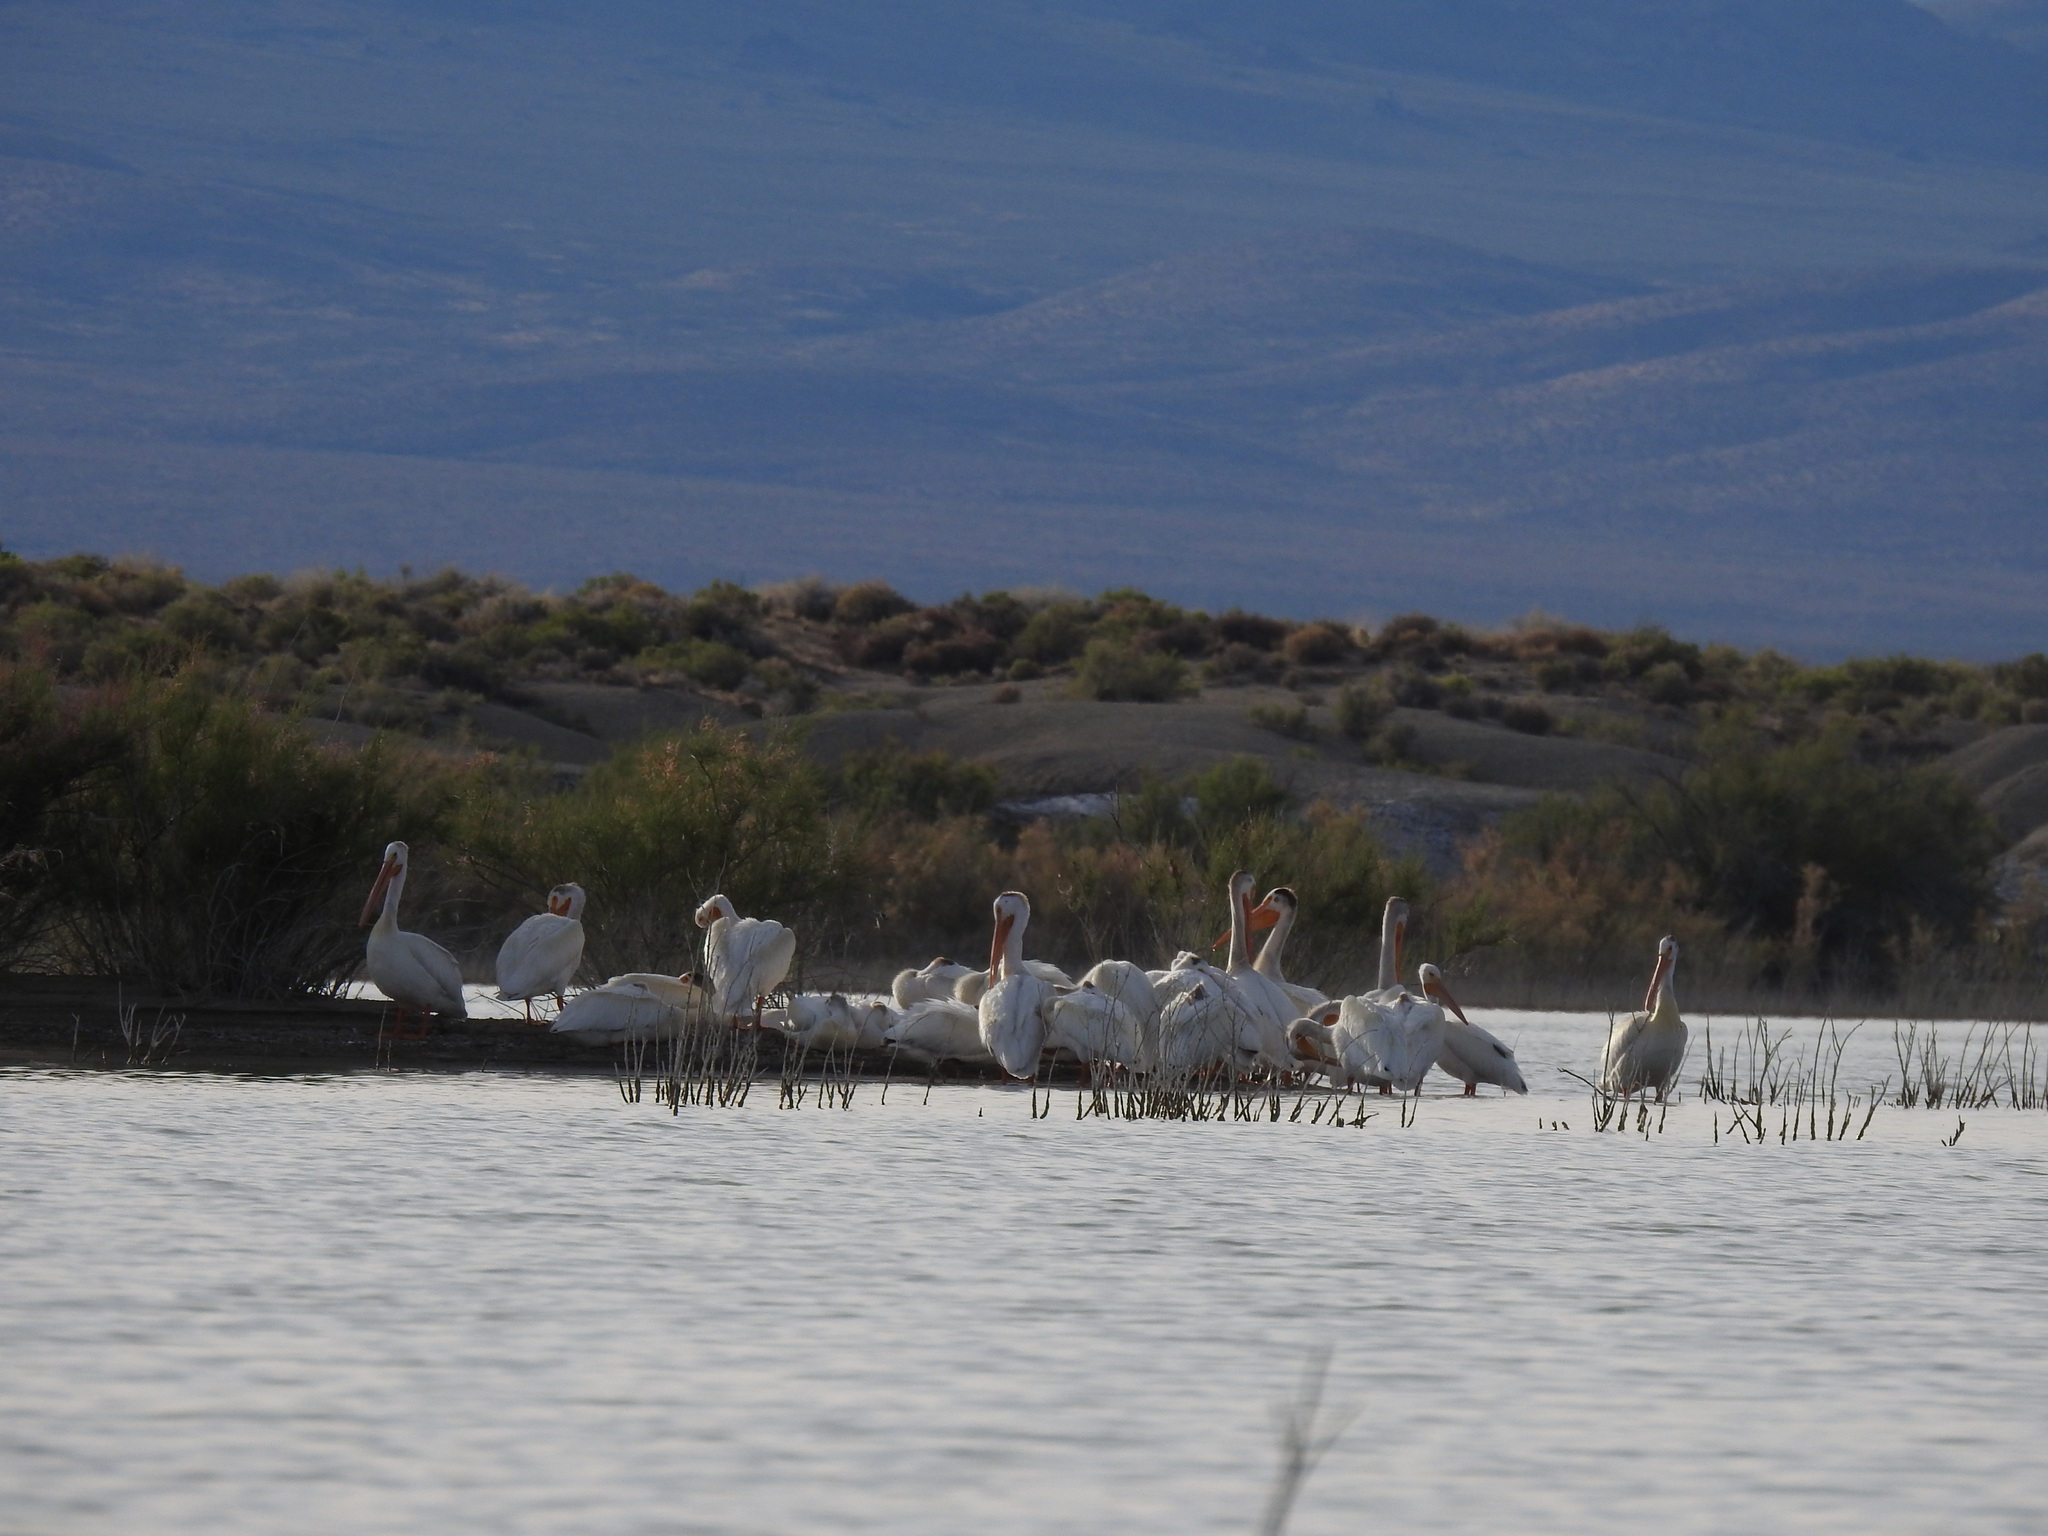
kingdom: Animalia
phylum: Chordata
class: Aves
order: Pelecaniformes
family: Pelecanidae
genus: Pelecanus
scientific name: Pelecanus erythrorhynchos
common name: American white pelican
